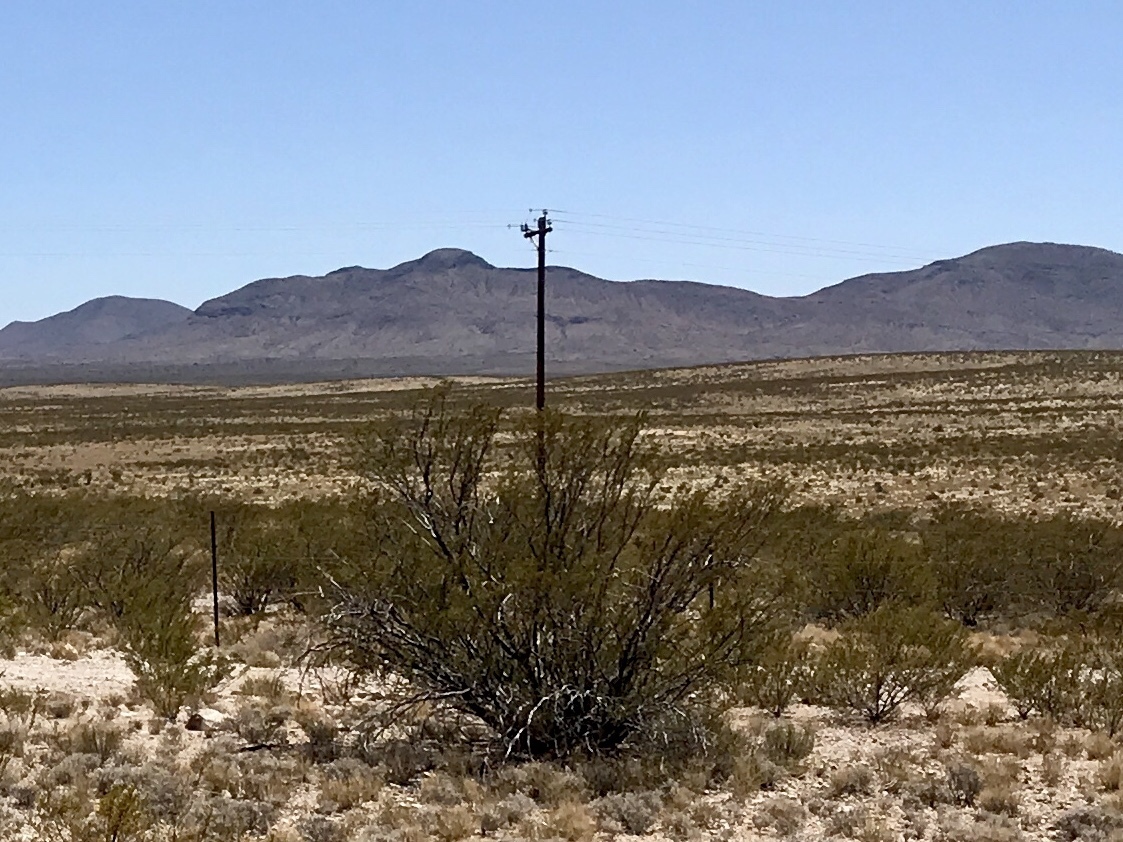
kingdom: Plantae
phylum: Tracheophyta
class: Magnoliopsida
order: Zygophyllales
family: Zygophyllaceae
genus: Larrea
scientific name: Larrea tridentata
